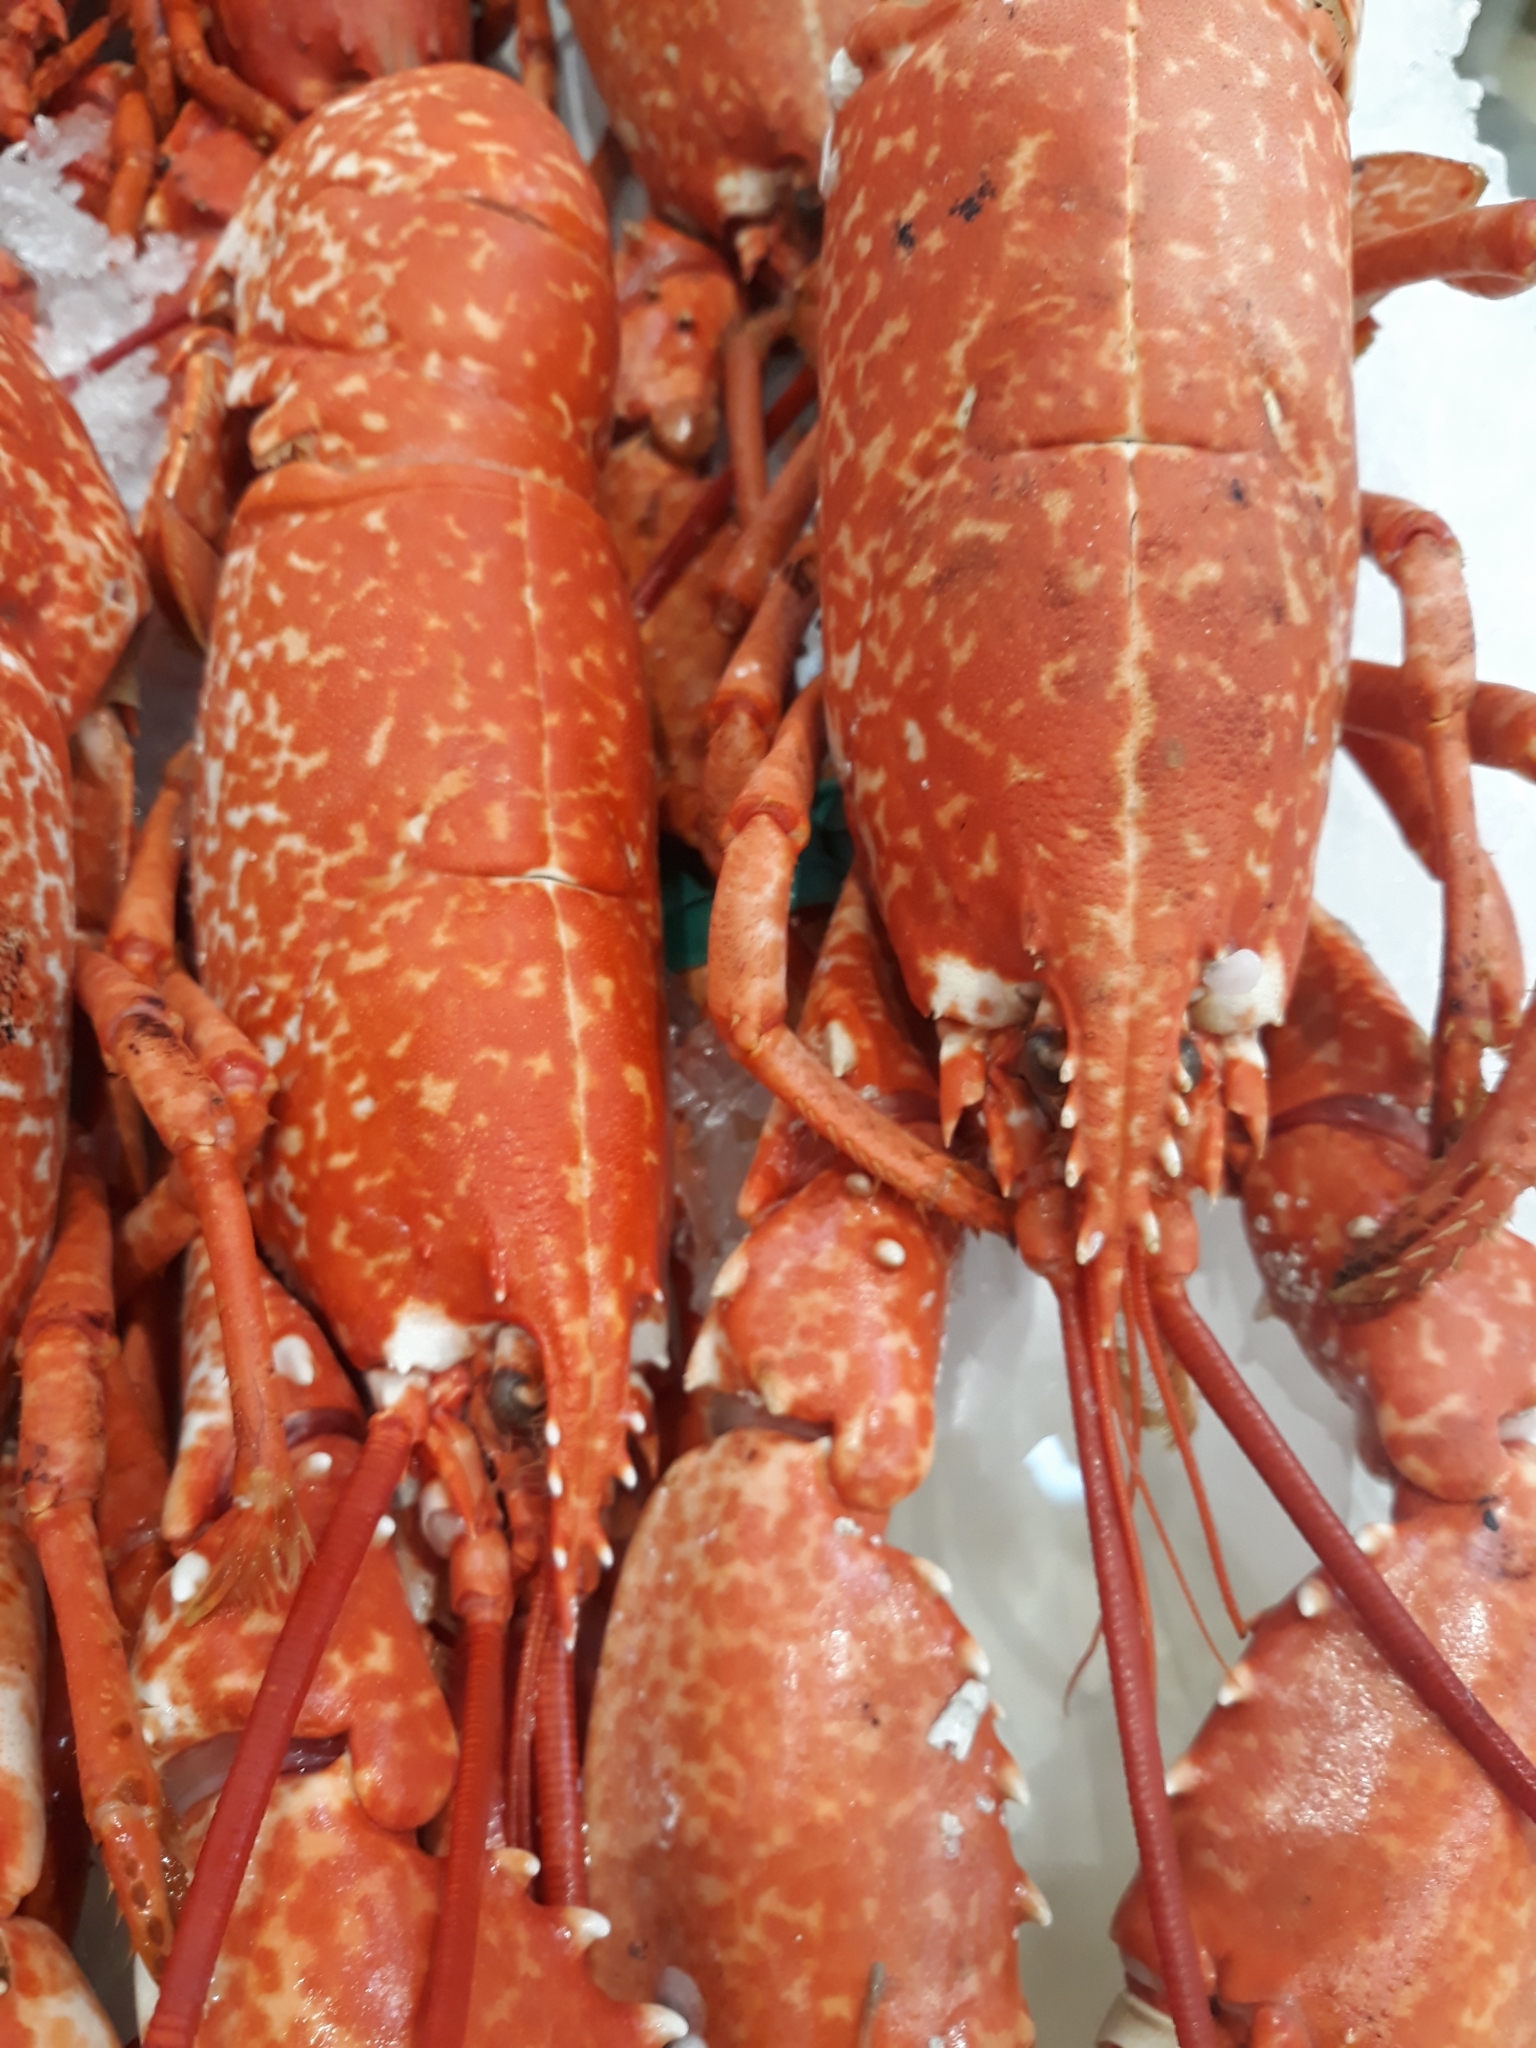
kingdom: Animalia
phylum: Arthropoda
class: Malacostraca
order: Decapoda
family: Nephropidae
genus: Homarus
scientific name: Homarus gammarus
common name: European lobster
